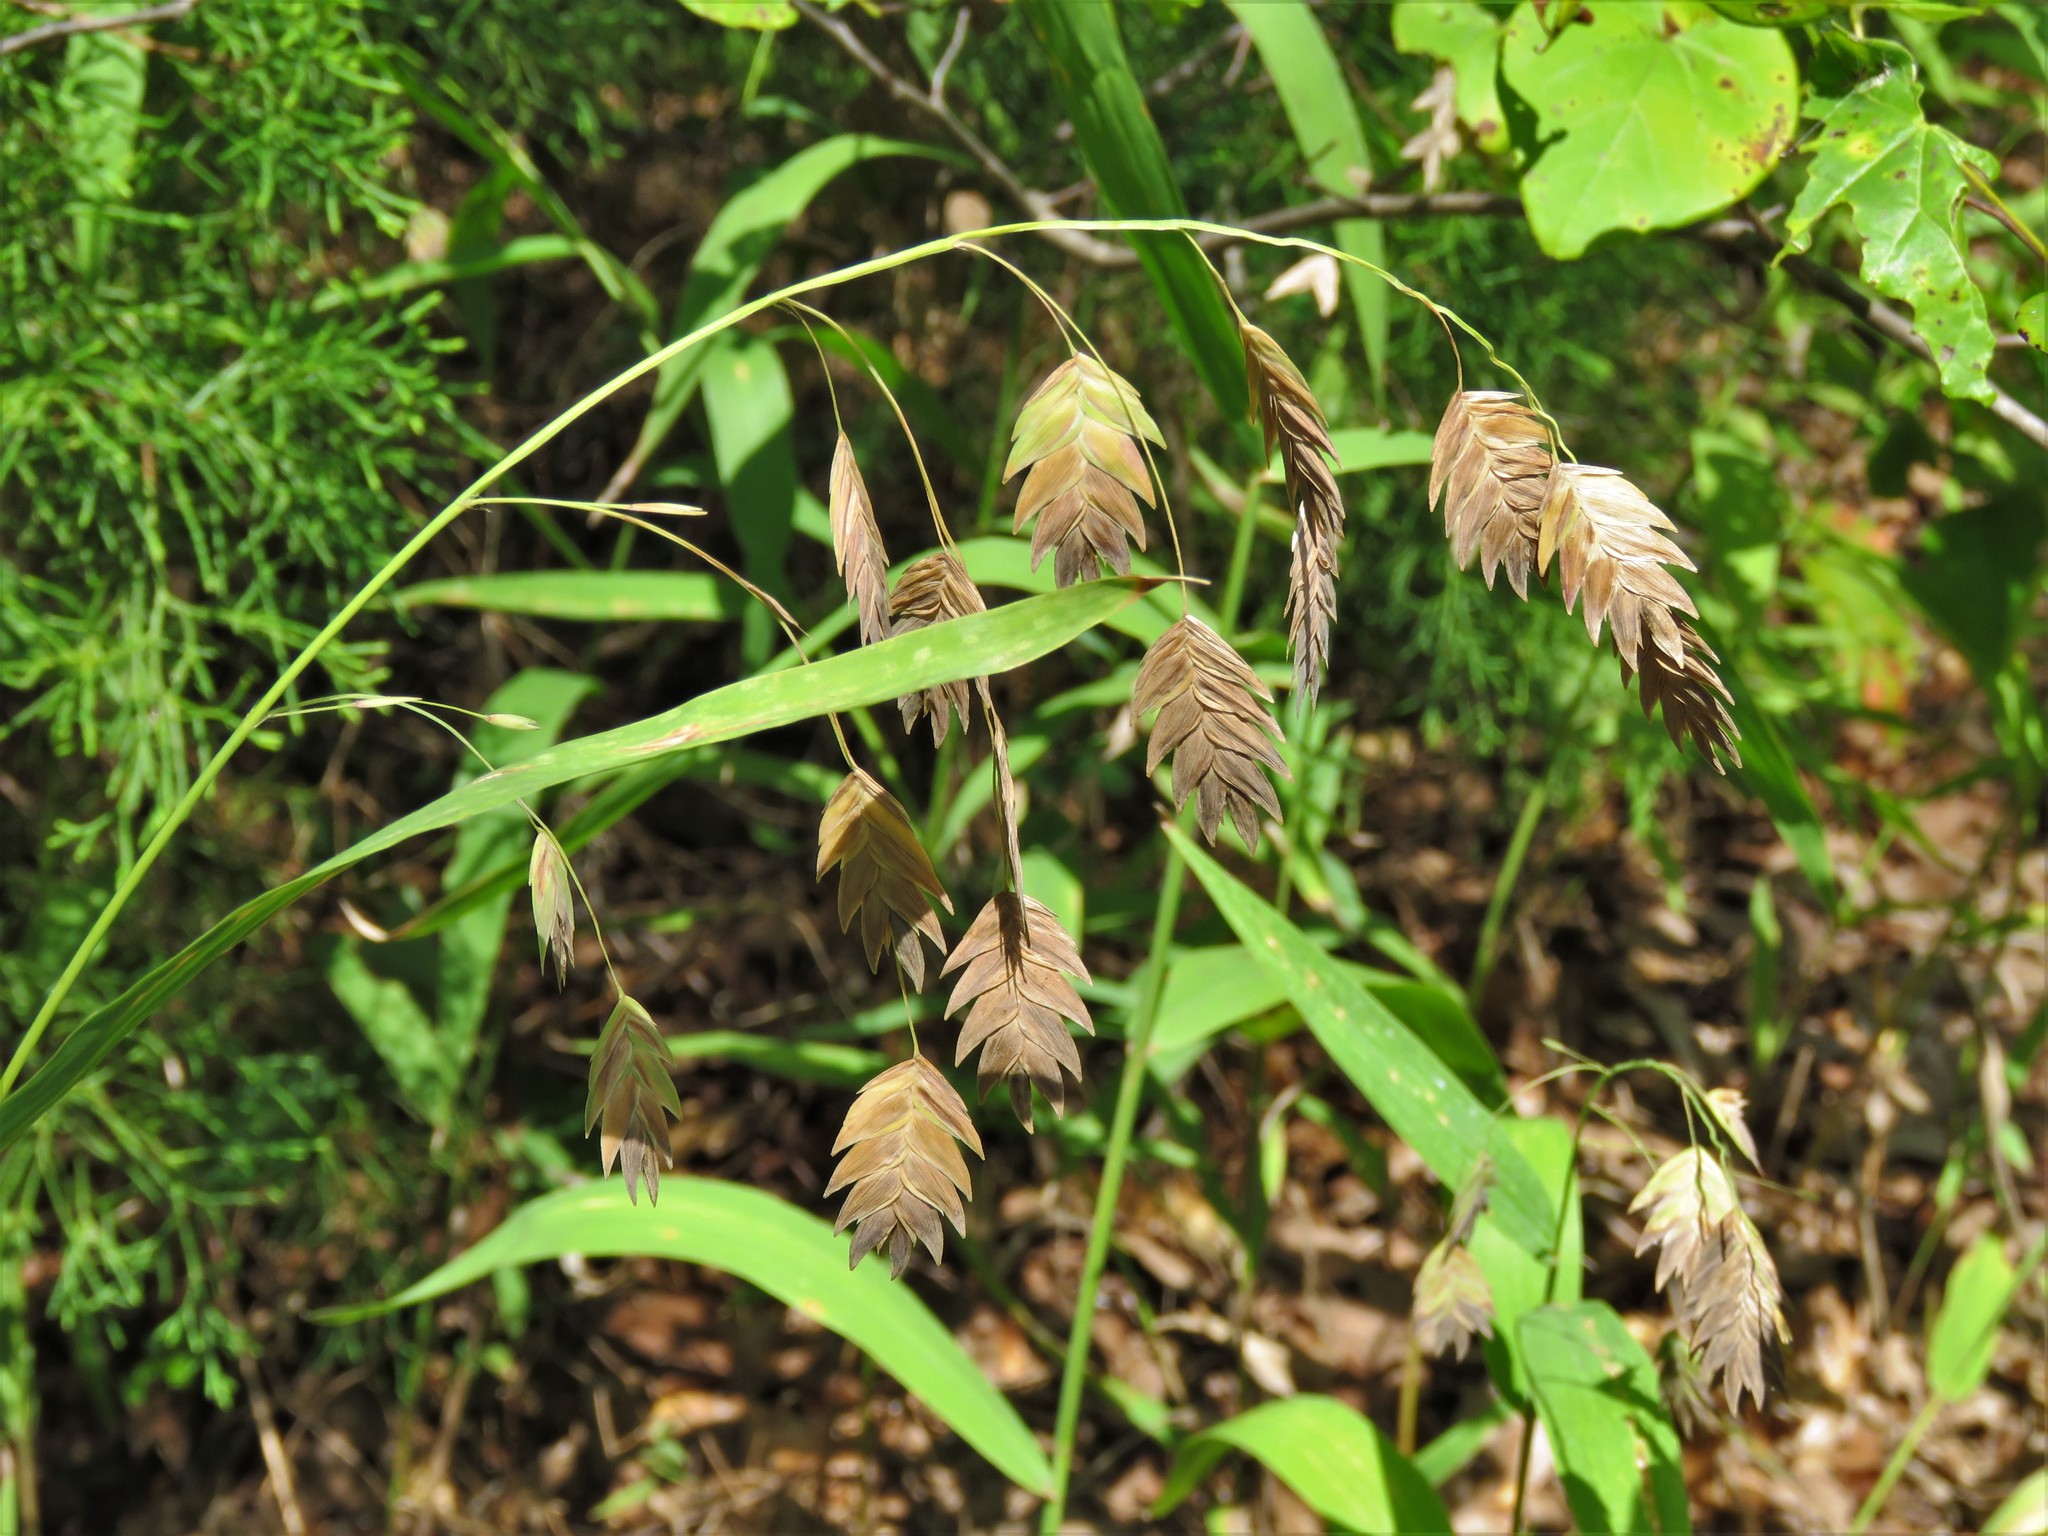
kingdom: Plantae
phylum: Tracheophyta
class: Liliopsida
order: Poales
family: Poaceae
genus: Chasmanthium
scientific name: Chasmanthium latifolium
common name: Broad-leaved chasmanthium
